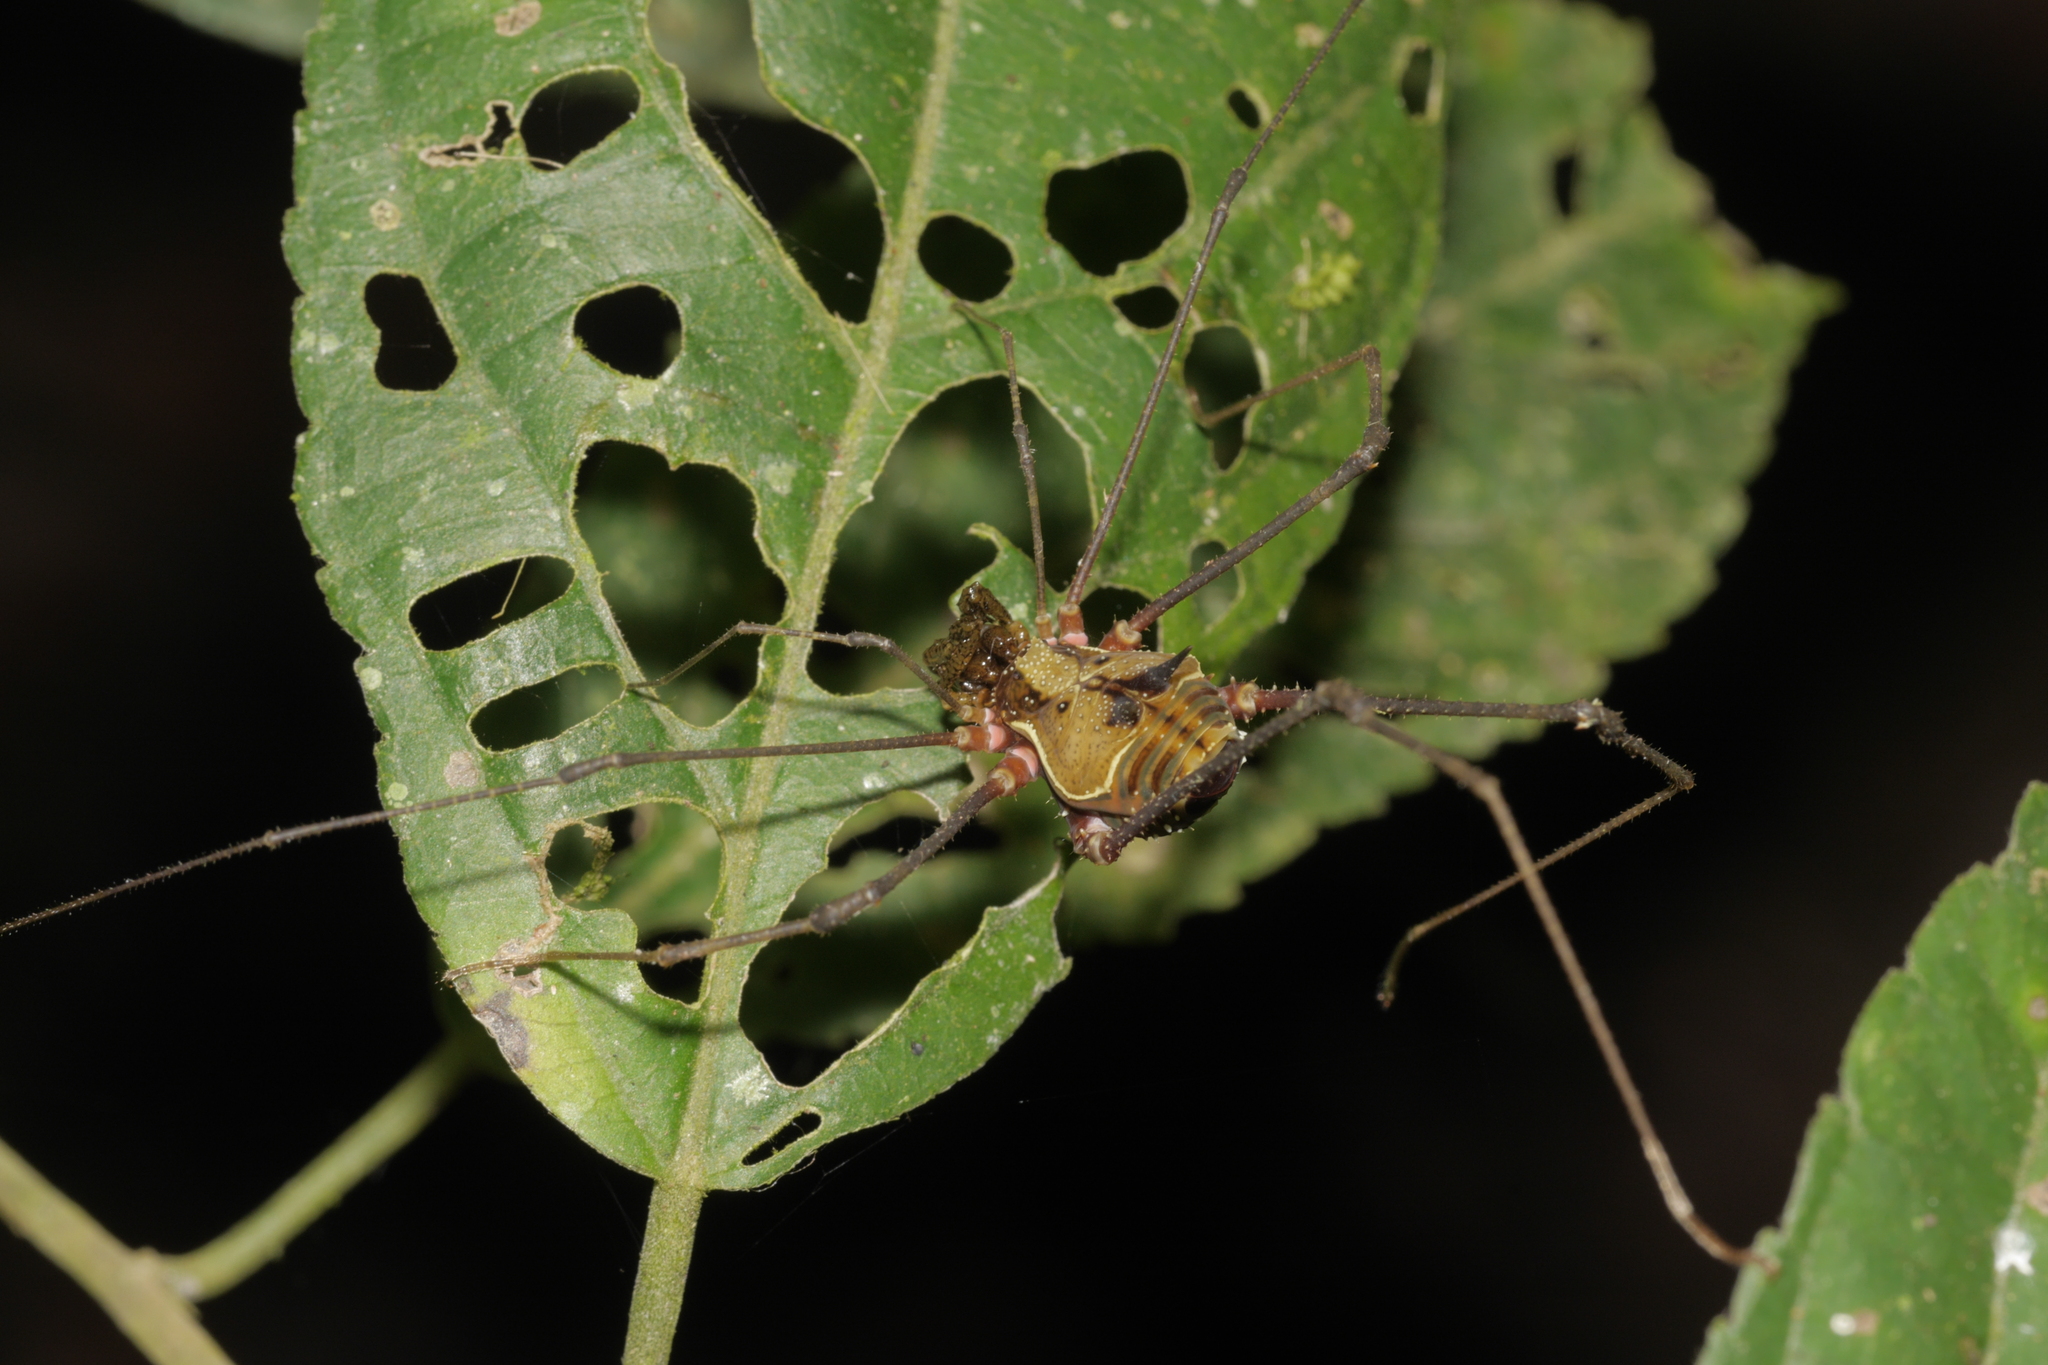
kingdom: Animalia
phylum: Arthropoda
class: Arachnida
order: Opiliones
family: Cranaidae
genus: Ventrivomer
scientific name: Ventrivomer ancyrophorus
